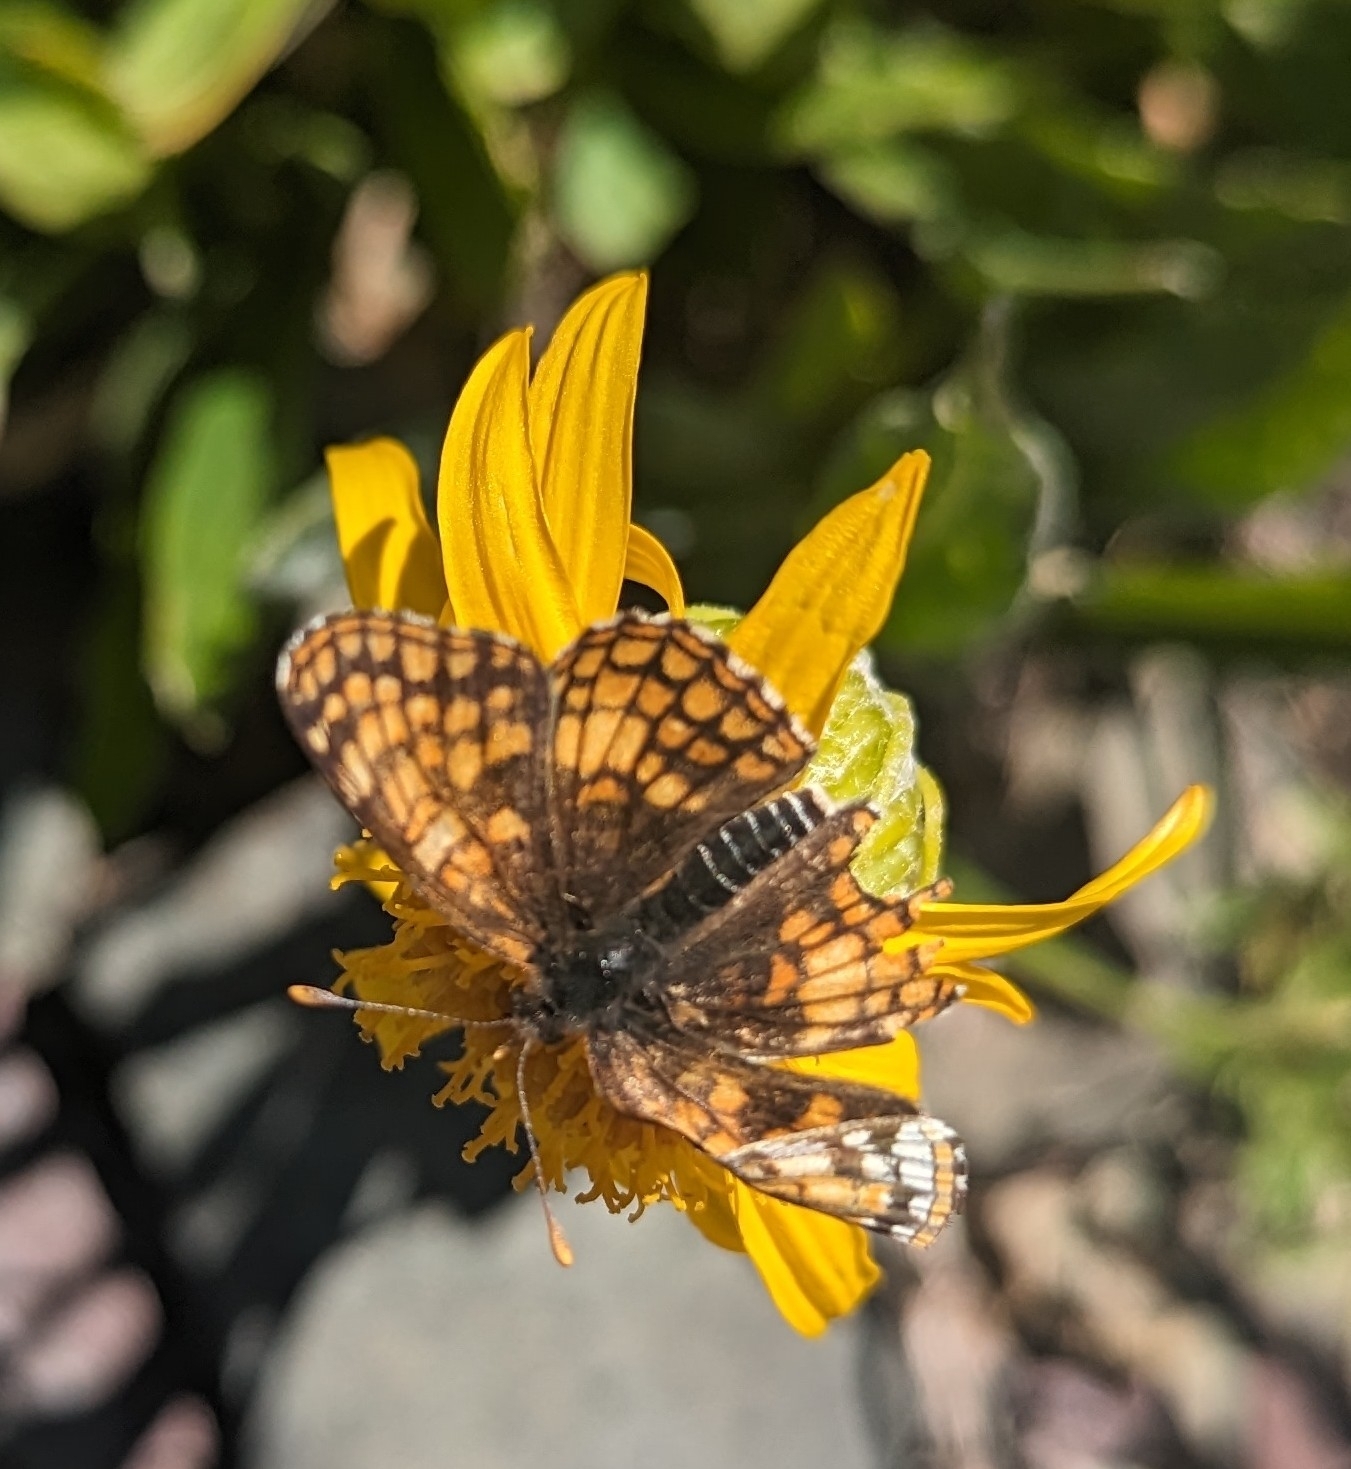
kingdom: Animalia
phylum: Arthropoda
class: Insecta
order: Lepidoptera
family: Nymphalidae
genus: Chlosyne
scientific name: Chlosyne palla
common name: Northern checkerspot
